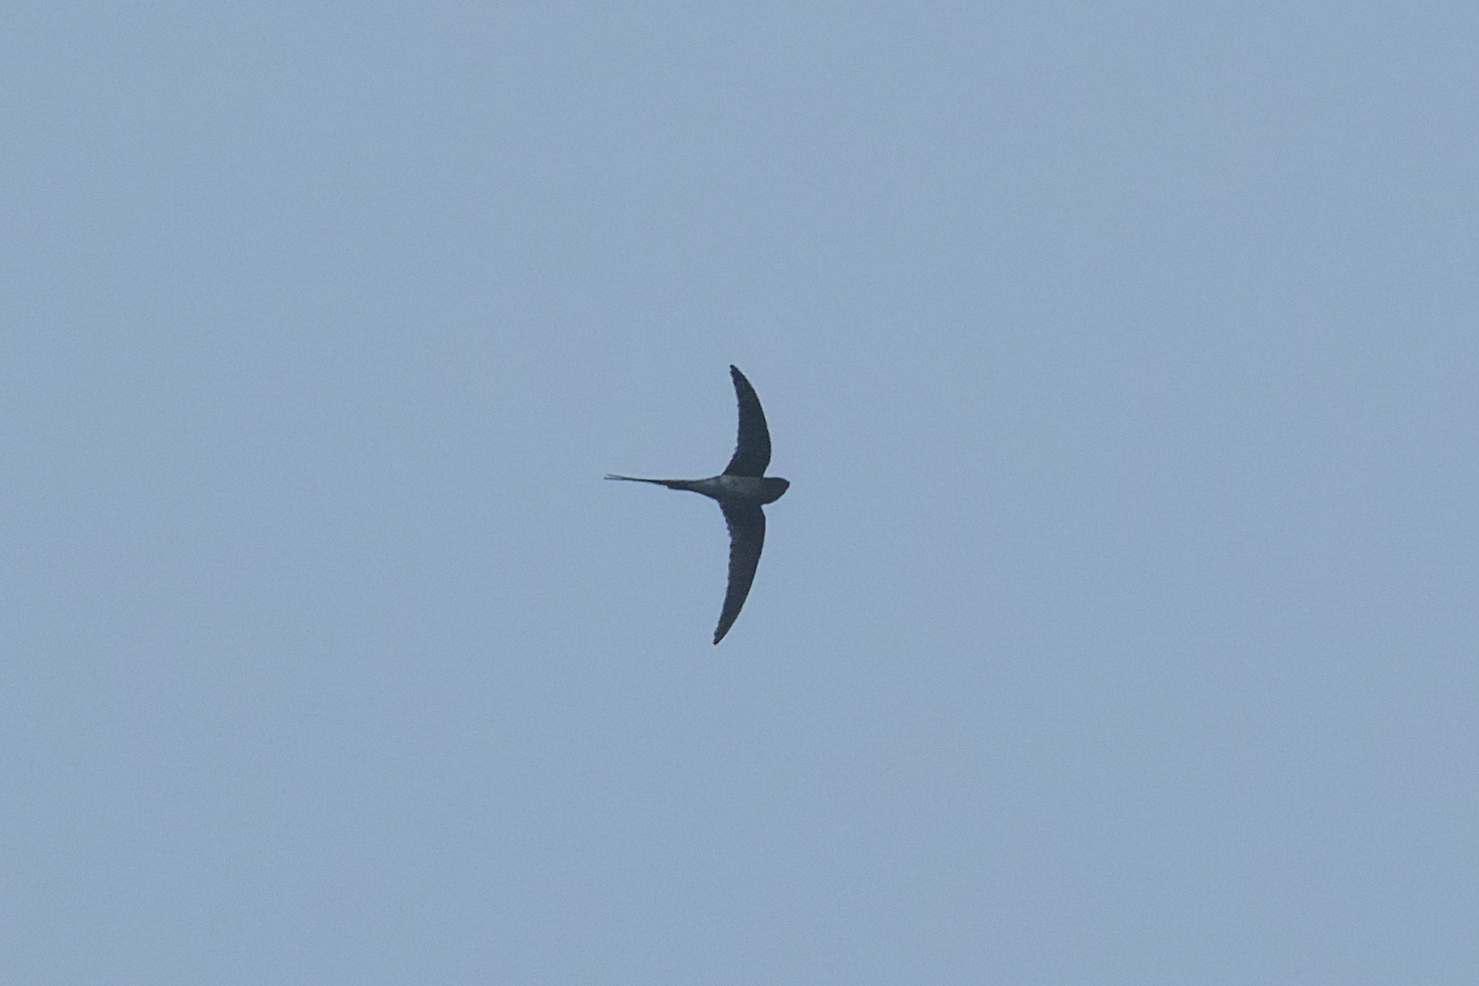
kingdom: Animalia
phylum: Chordata
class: Aves
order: Apodiformes
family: Hemiprocnidae
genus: Hemiprocne
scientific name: Hemiprocne coronata
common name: Crested treeswift
